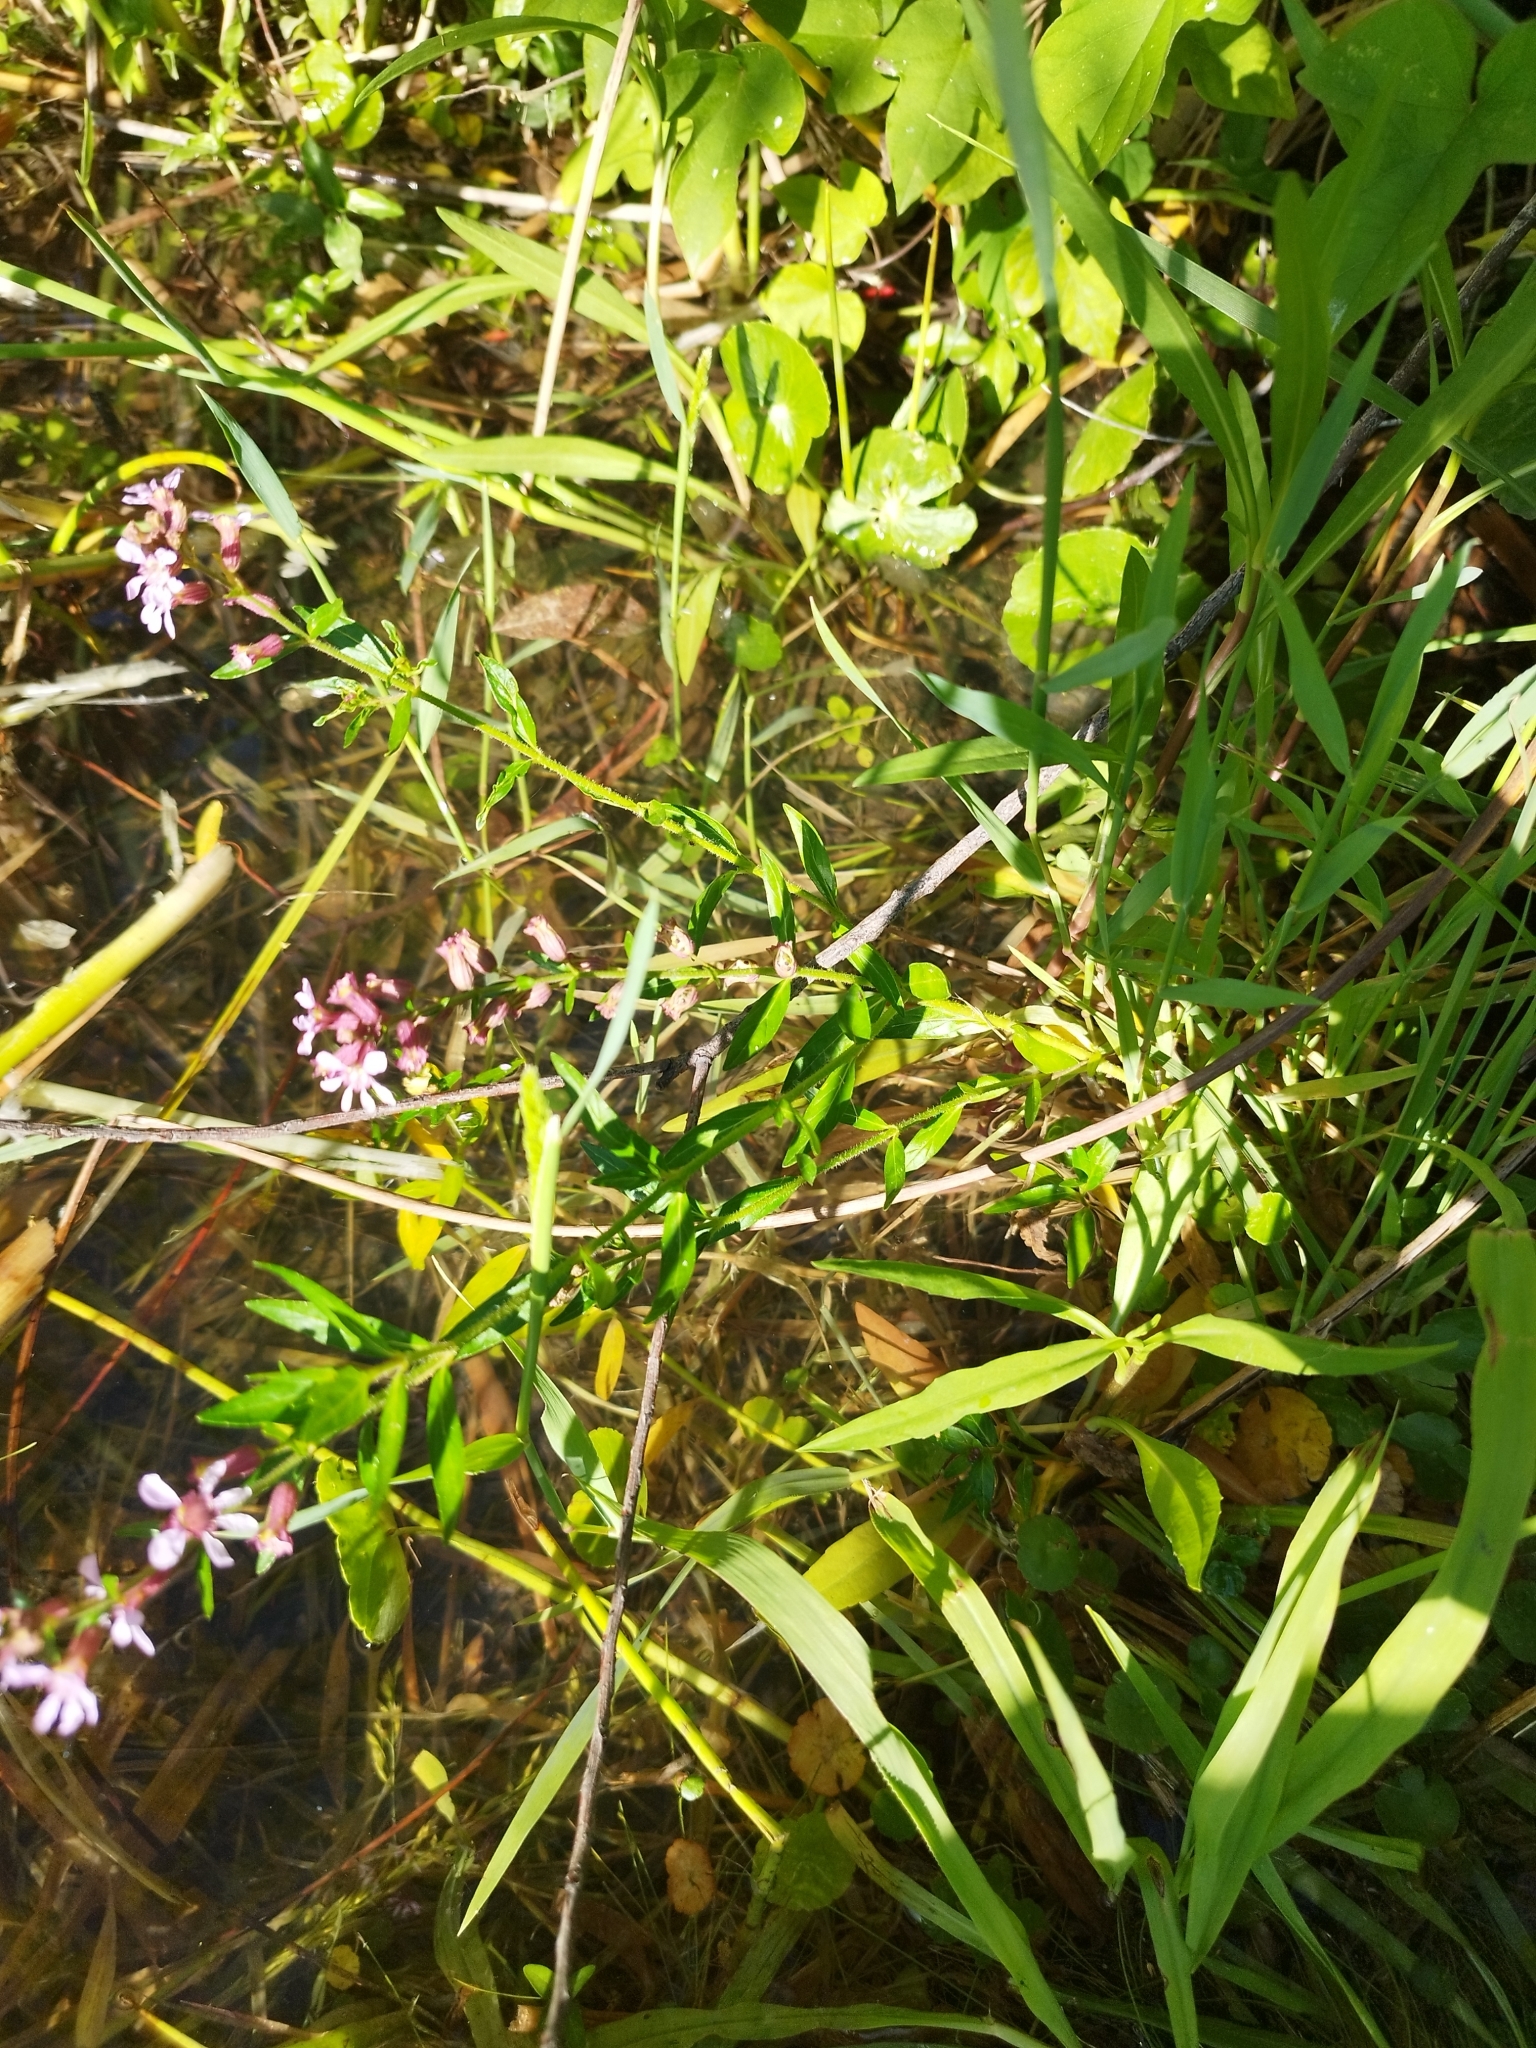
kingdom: Plantae
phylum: Tracheophyta
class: Magnoliopsida
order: Myrtales
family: Lythraceae
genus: Cuphea
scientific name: Cuphea fruticosa
